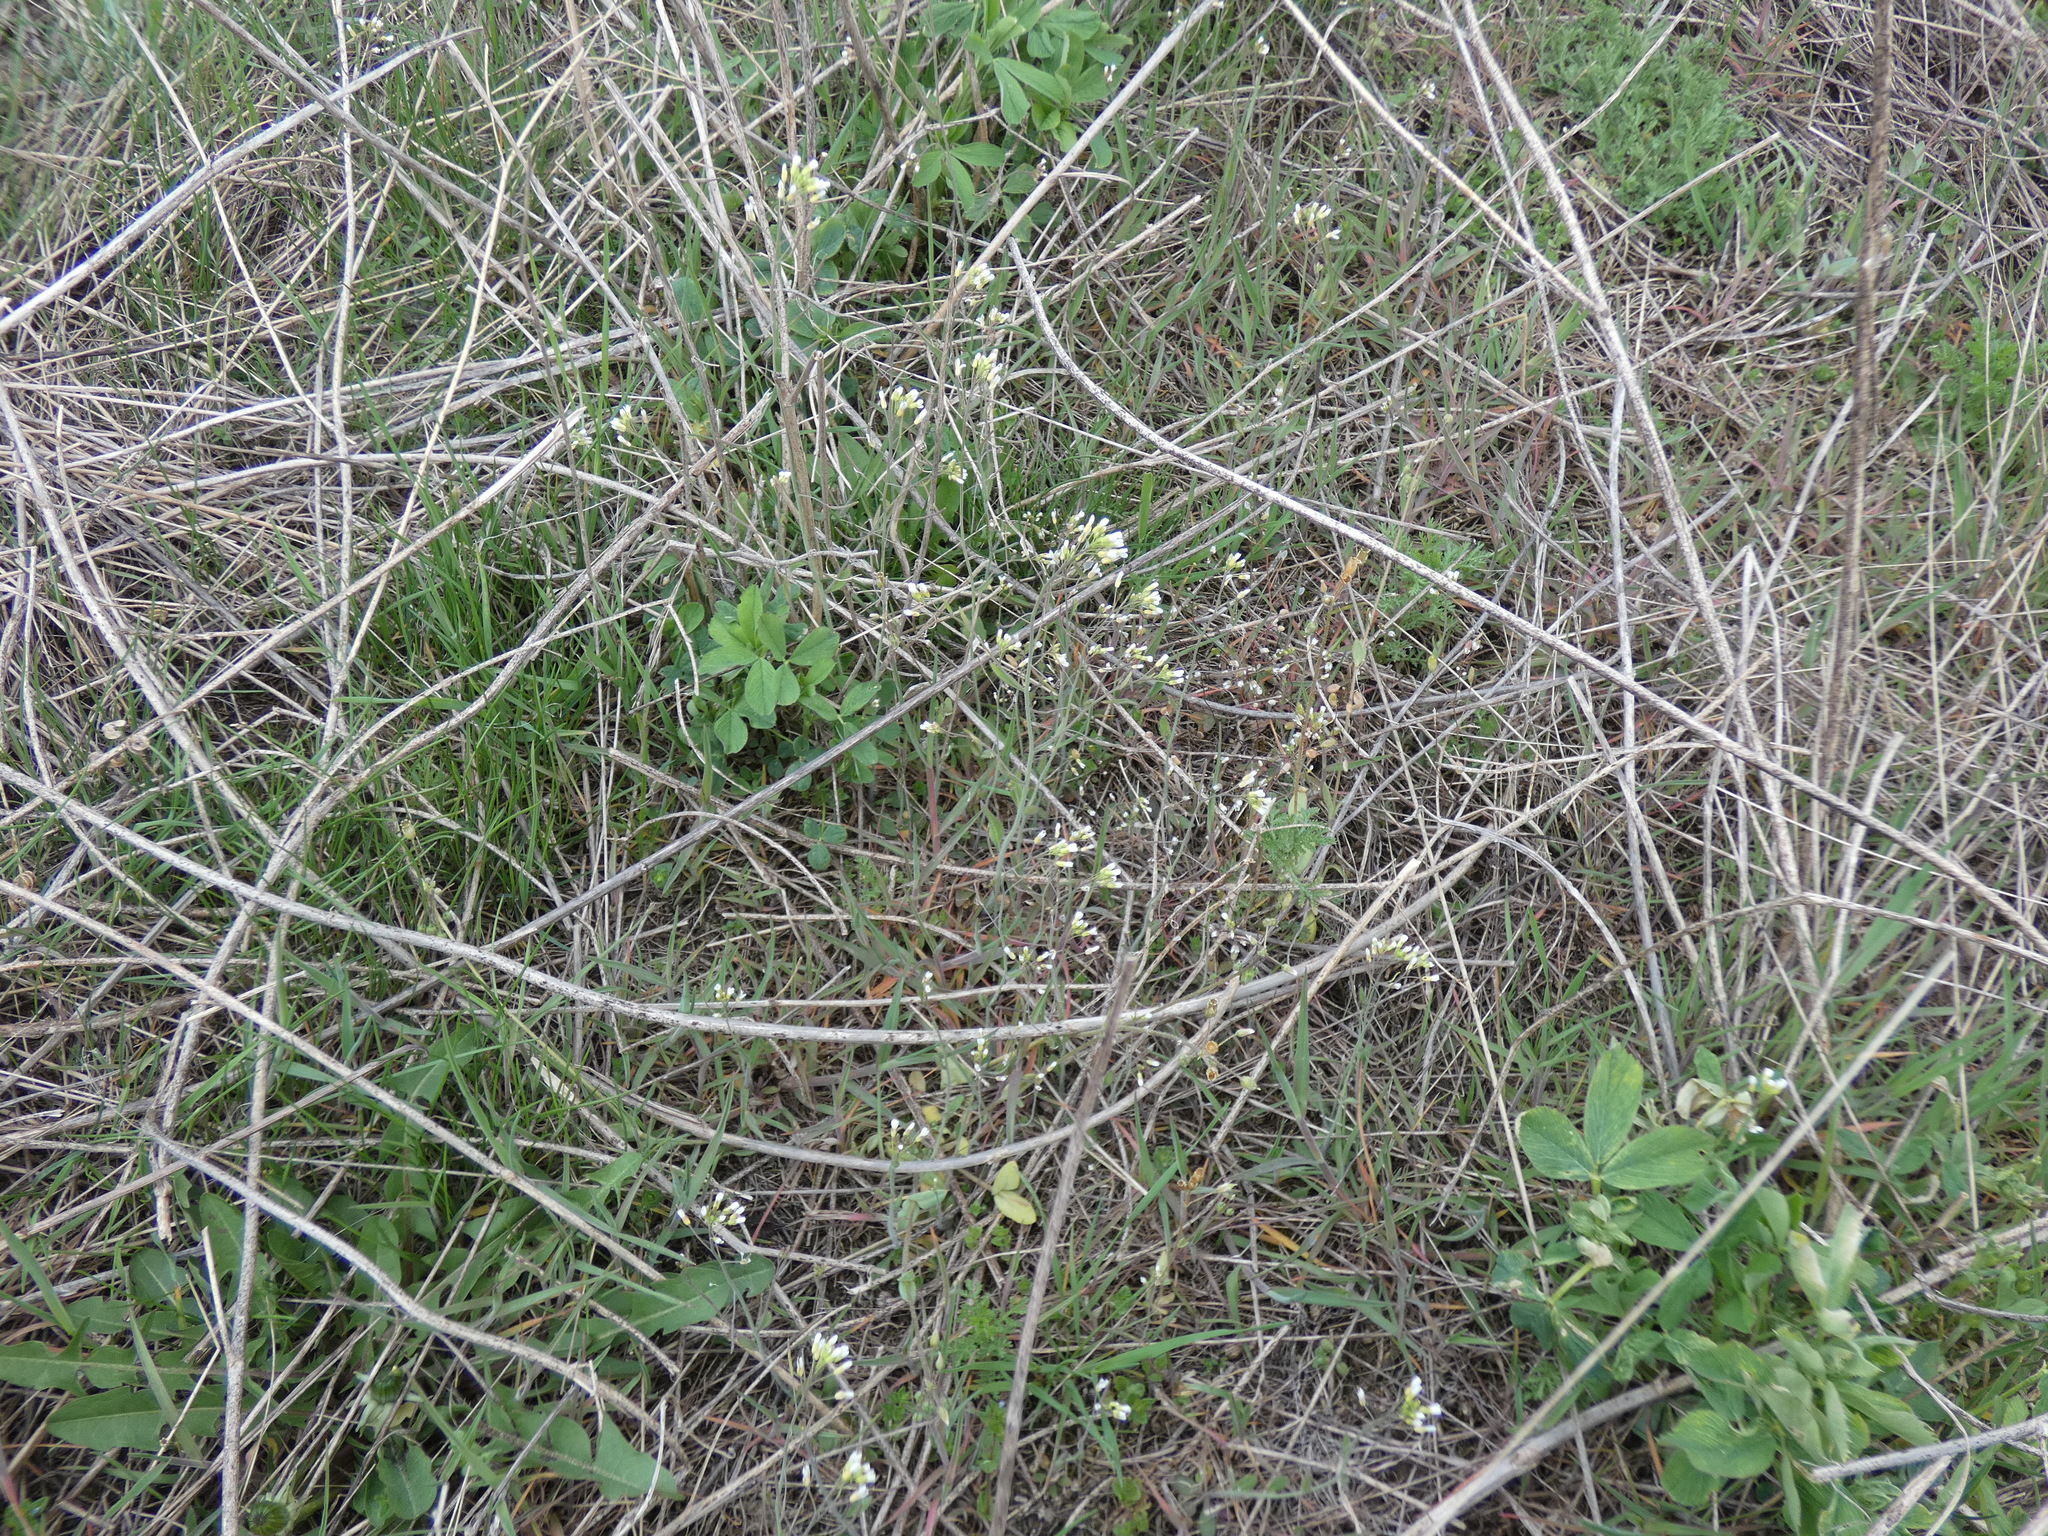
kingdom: Plantae
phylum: Tracheophyta
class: Magnoliopsida
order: Brassicales
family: Brassicaceae
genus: Arabidopsis
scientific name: Arabidopsis thaliana
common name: Thale cress
